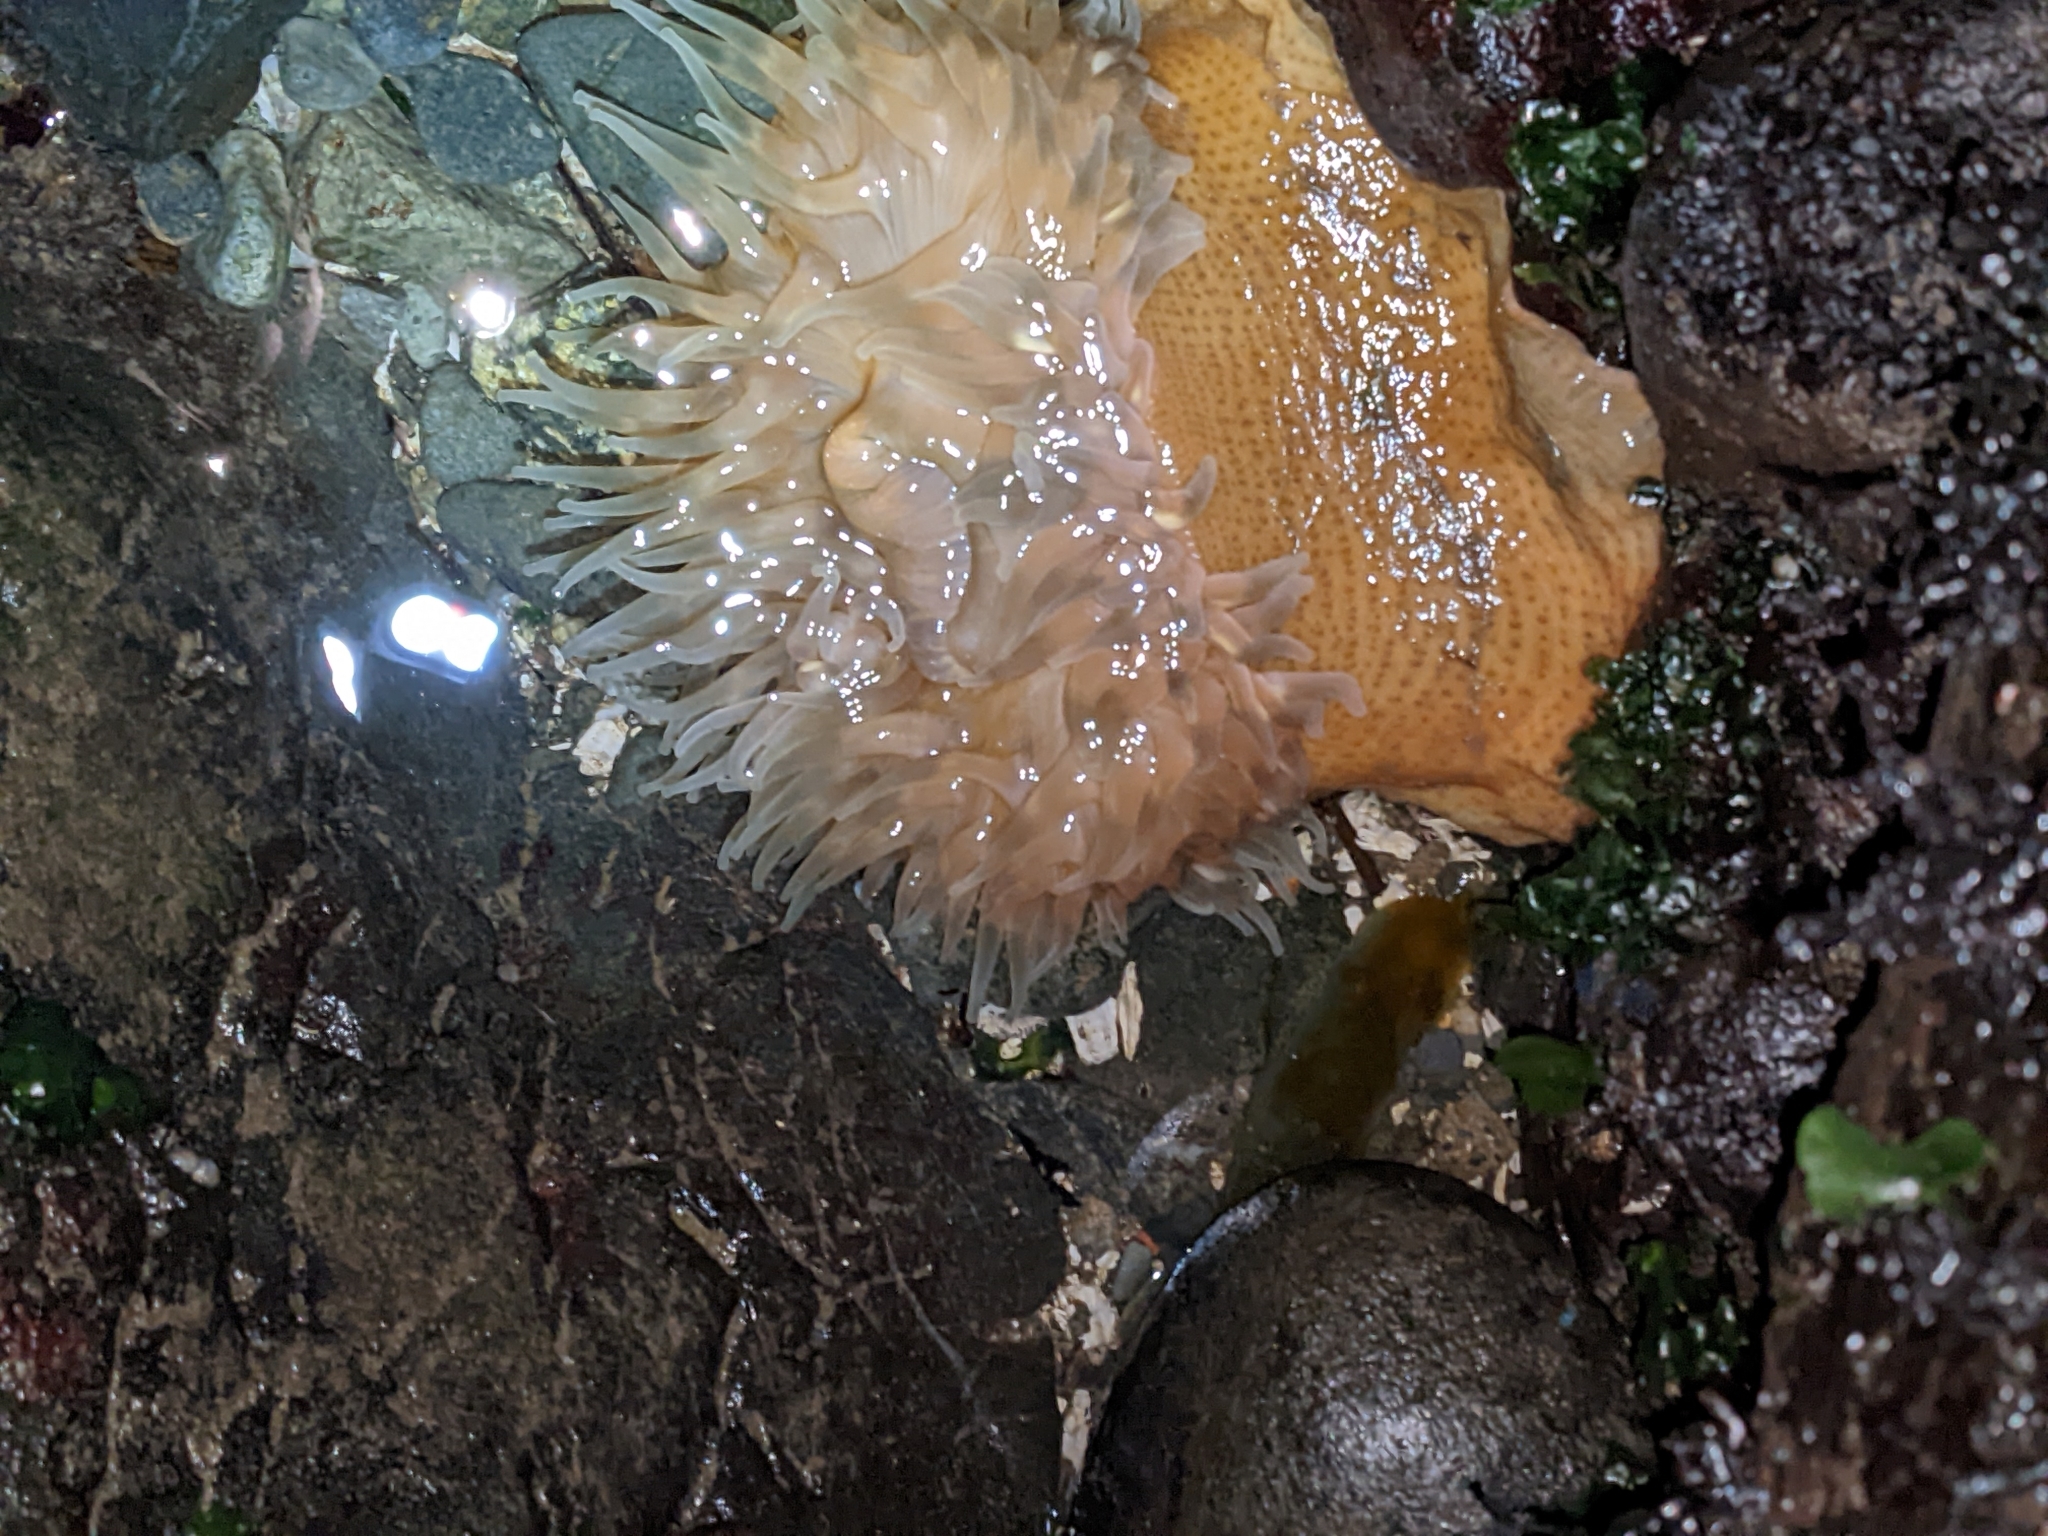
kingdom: Animalia
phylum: Cnidaria
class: Anthozoa
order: Actiniaria
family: Actiniidae
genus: Urticina
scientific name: Urticina grebelnyi
